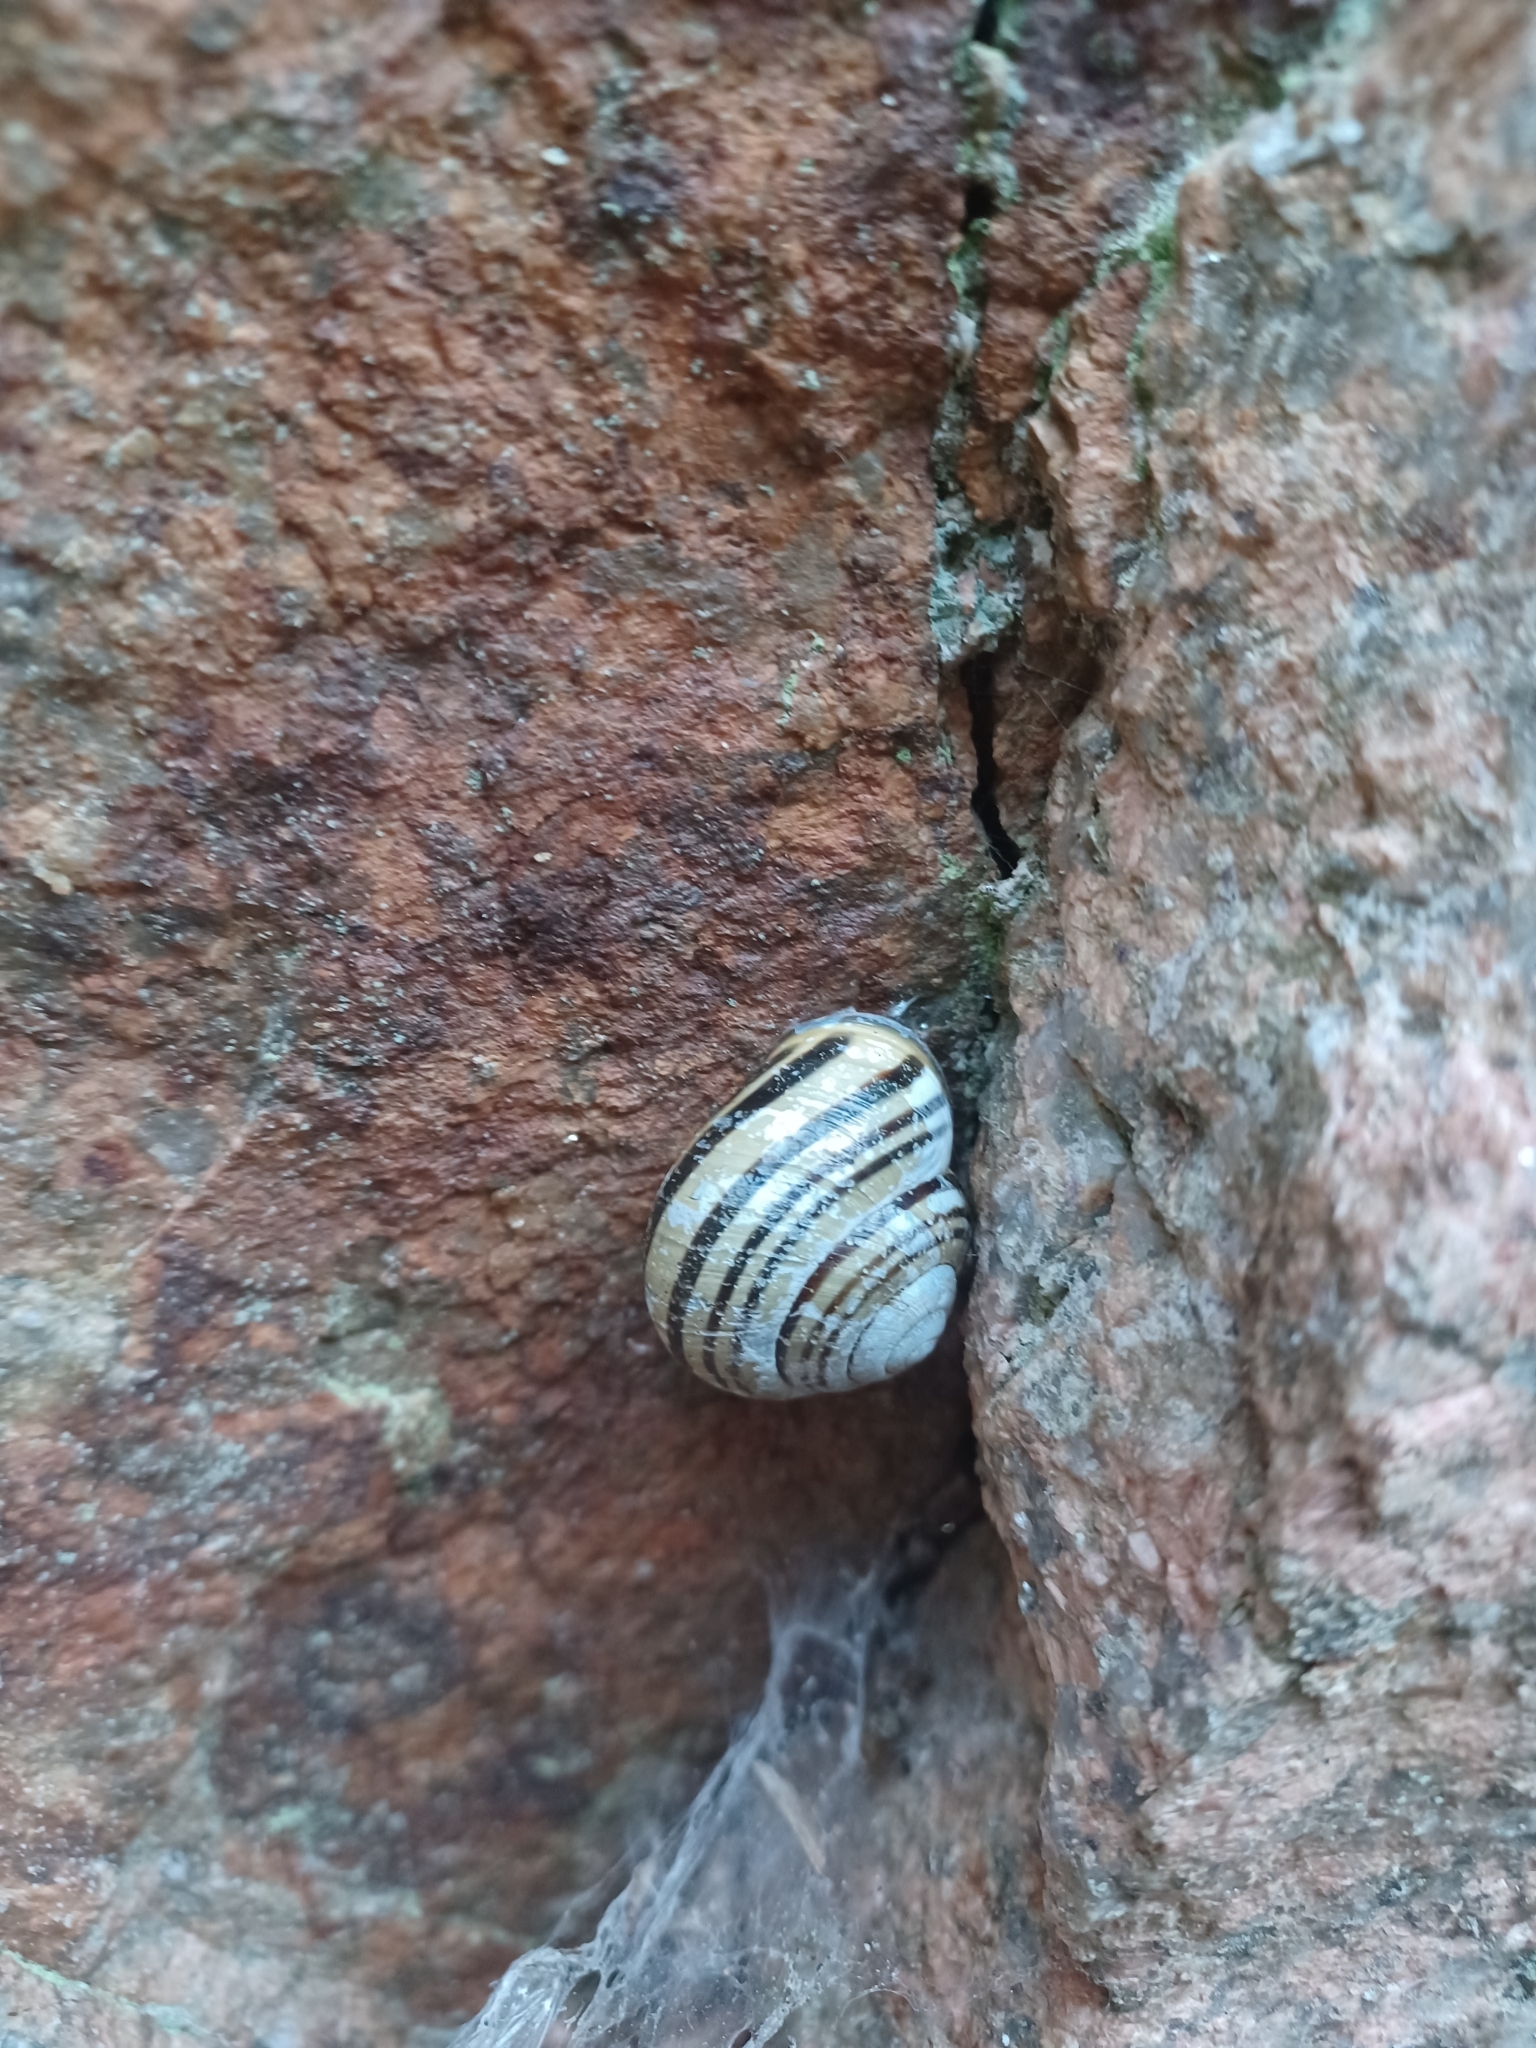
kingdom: Animalia
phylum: Mollusca
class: Gastropoda
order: Stylommatophora
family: Helicidae
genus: Cepaea
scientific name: Cepaea nemoralis
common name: Grovesnail
